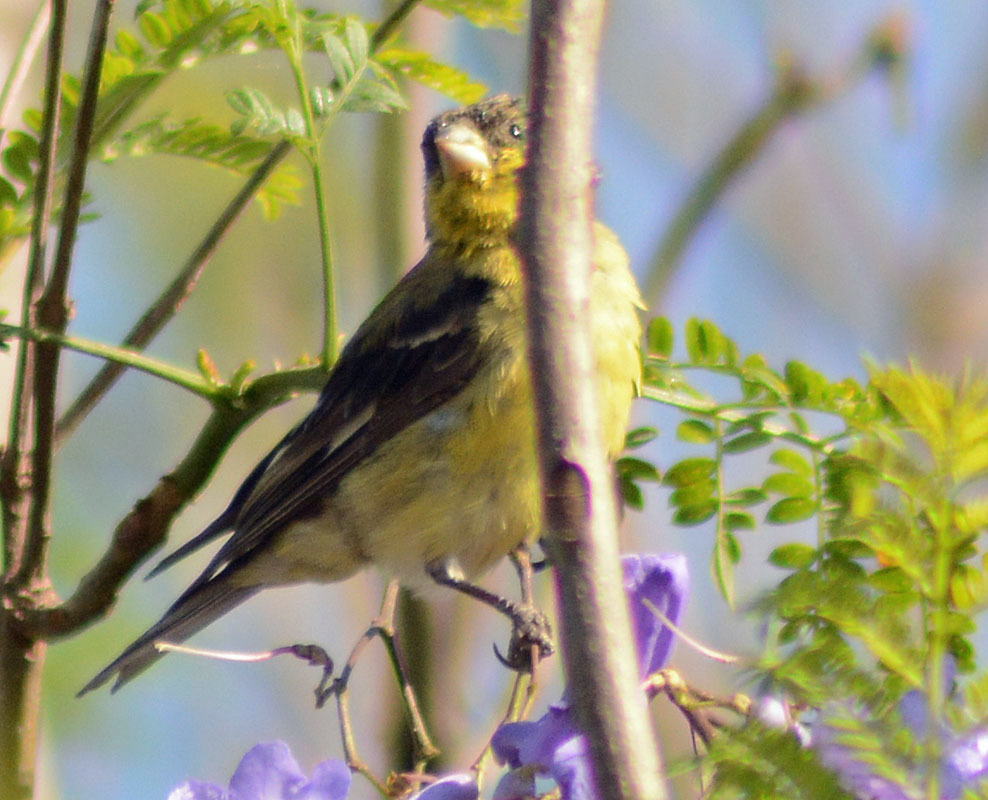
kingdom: Animalia
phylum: Chordata
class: Aves
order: Passeriformes
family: Fringillidae
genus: Spinus
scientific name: Spinus psaltria
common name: Lesser goldfinch
